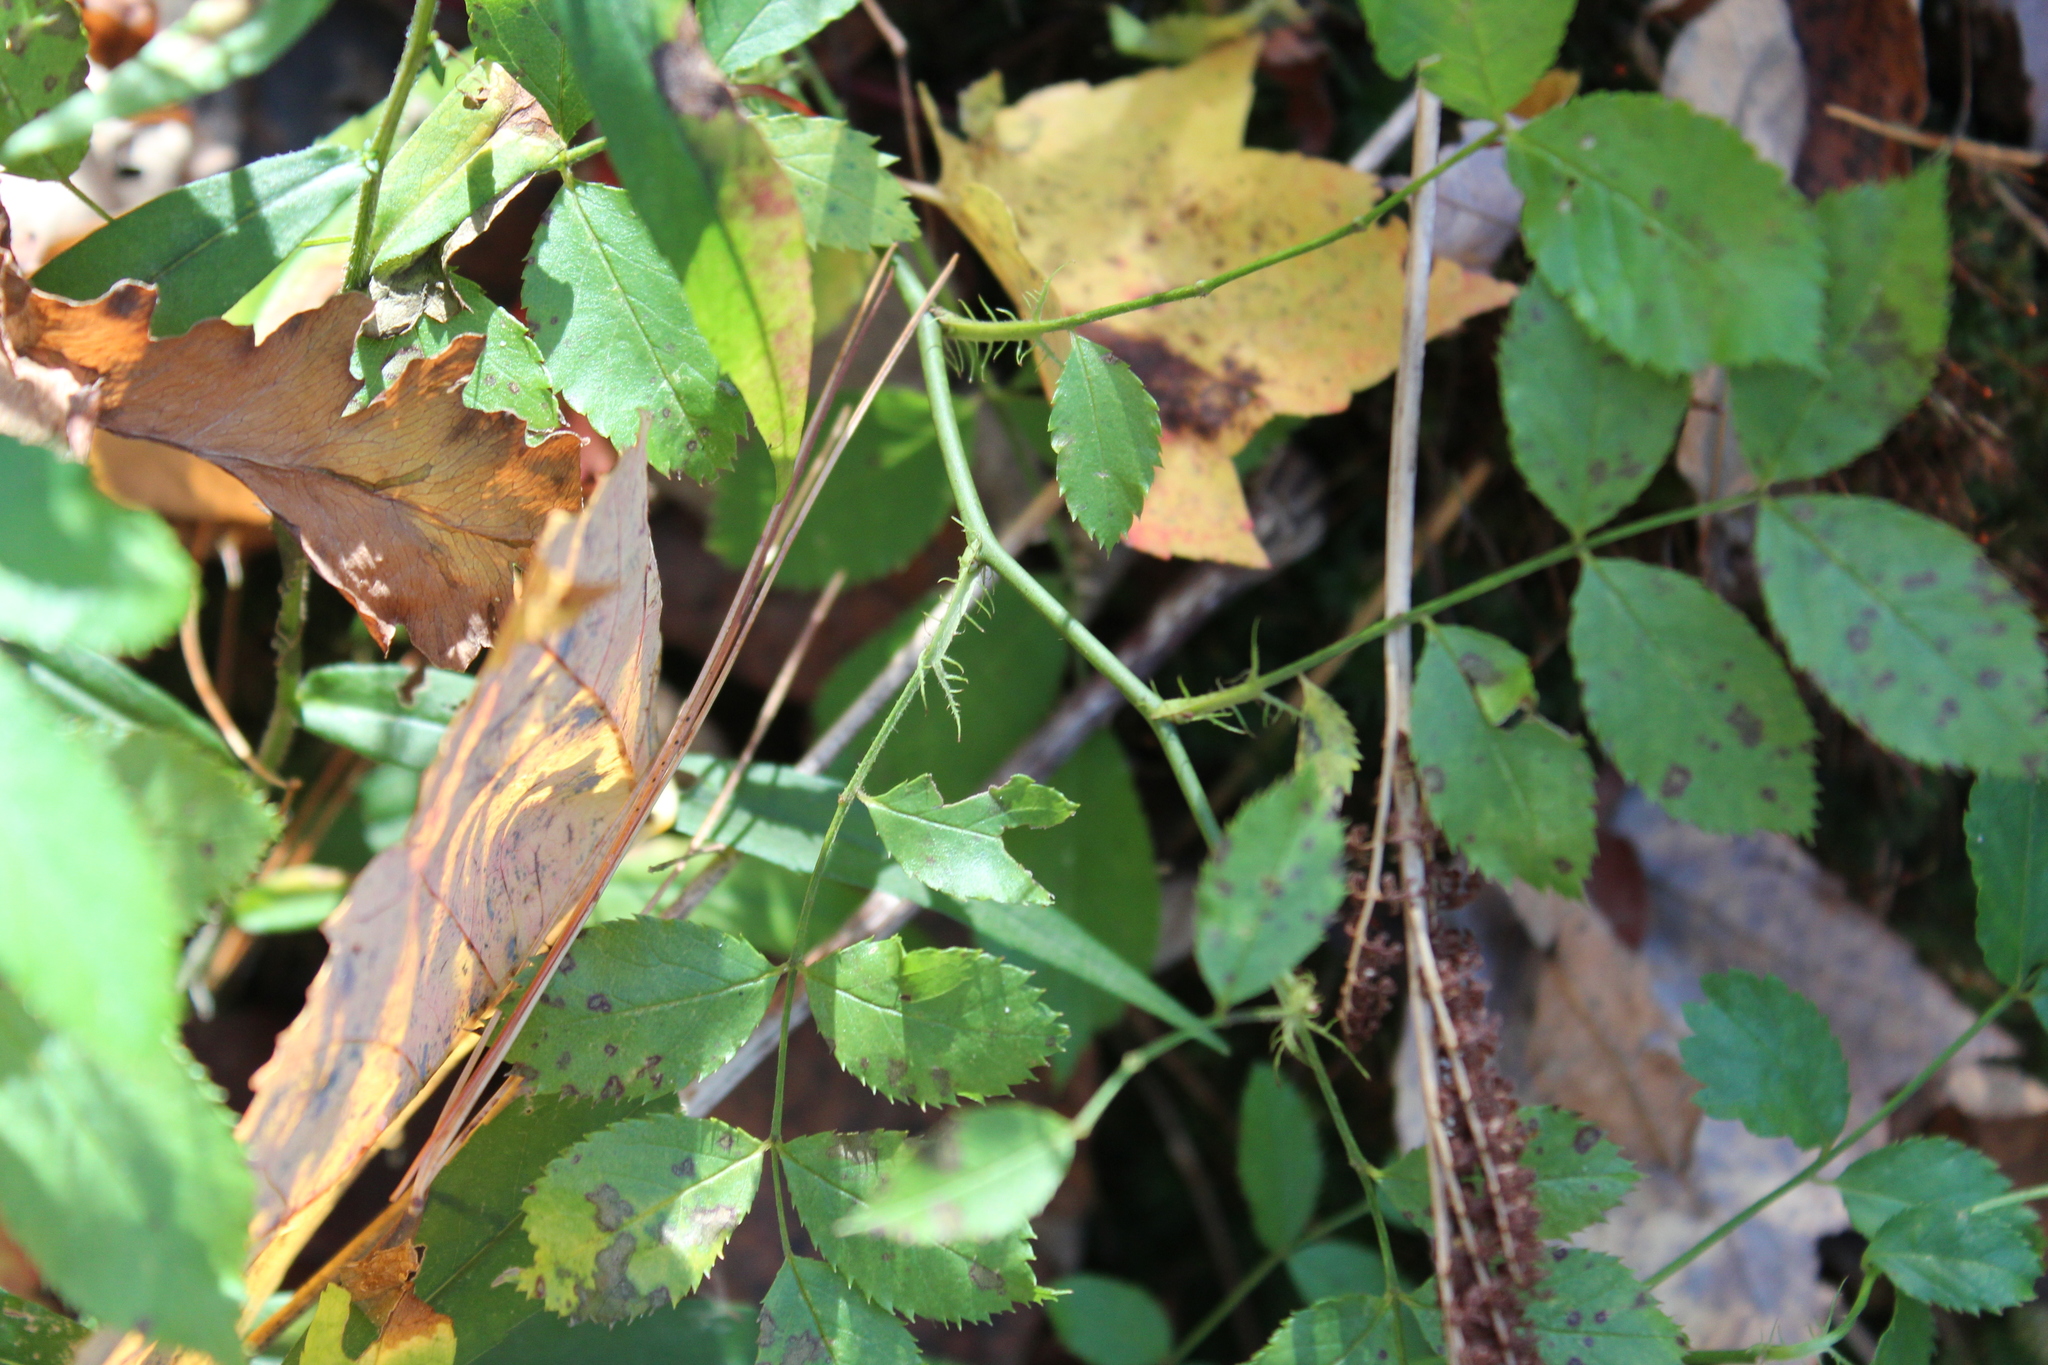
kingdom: Plantae
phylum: Tracheophyta
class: Magnoliopsida
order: Rosales
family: Rosaceae
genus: Rosa
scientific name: Rosa multiflora
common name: Multiflora rose
